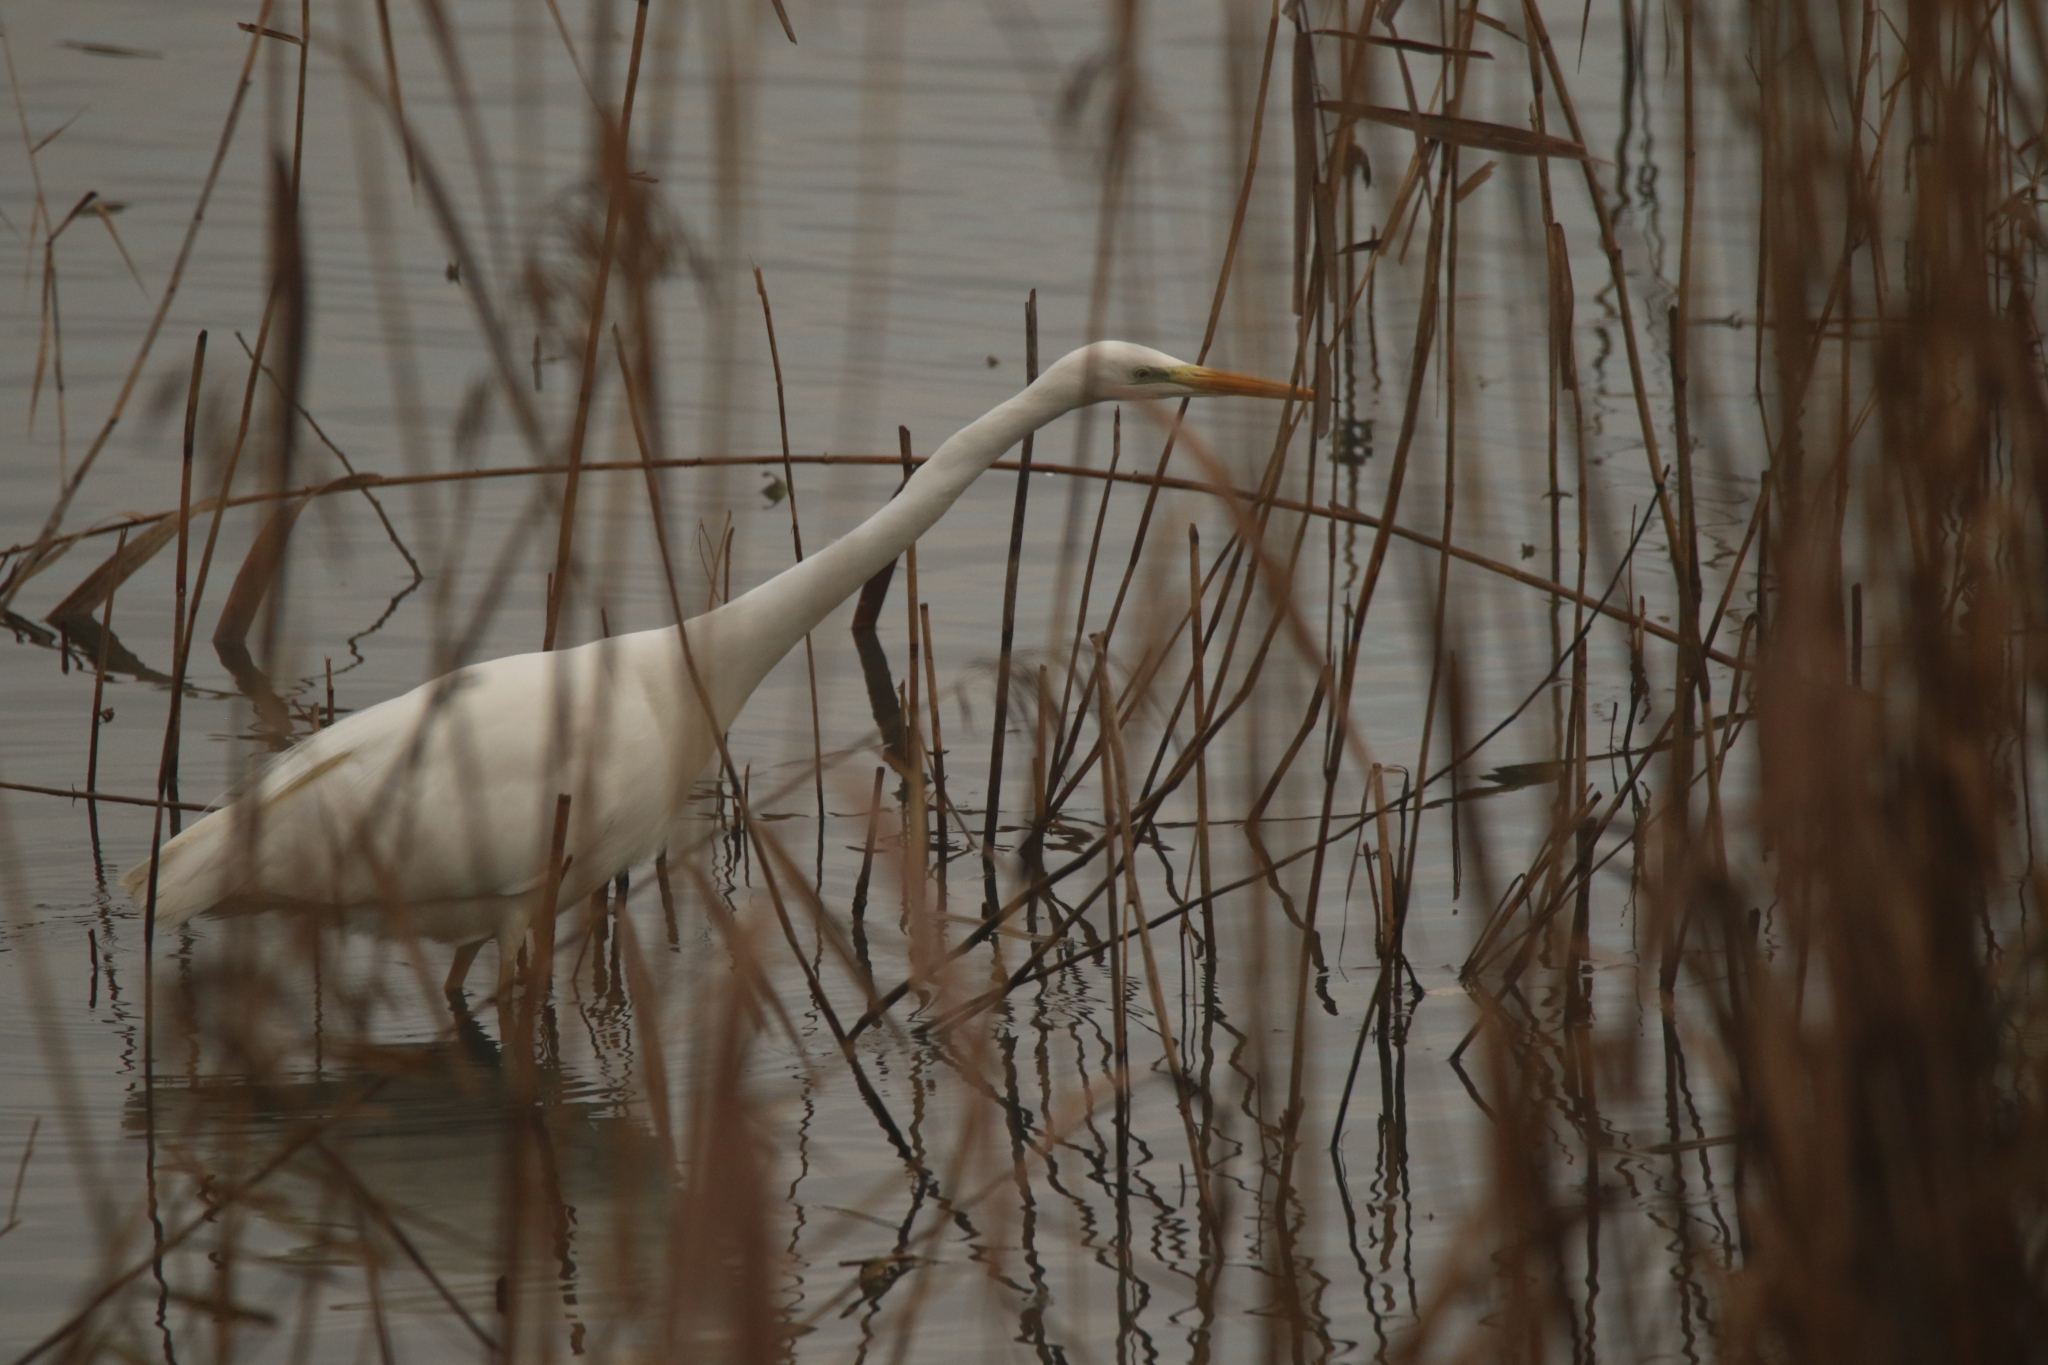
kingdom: Animalia
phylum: Chordata
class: Aves
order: Pelecaniformes
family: Ardeidae
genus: Ardea
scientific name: Ardea alba
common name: Great egret
